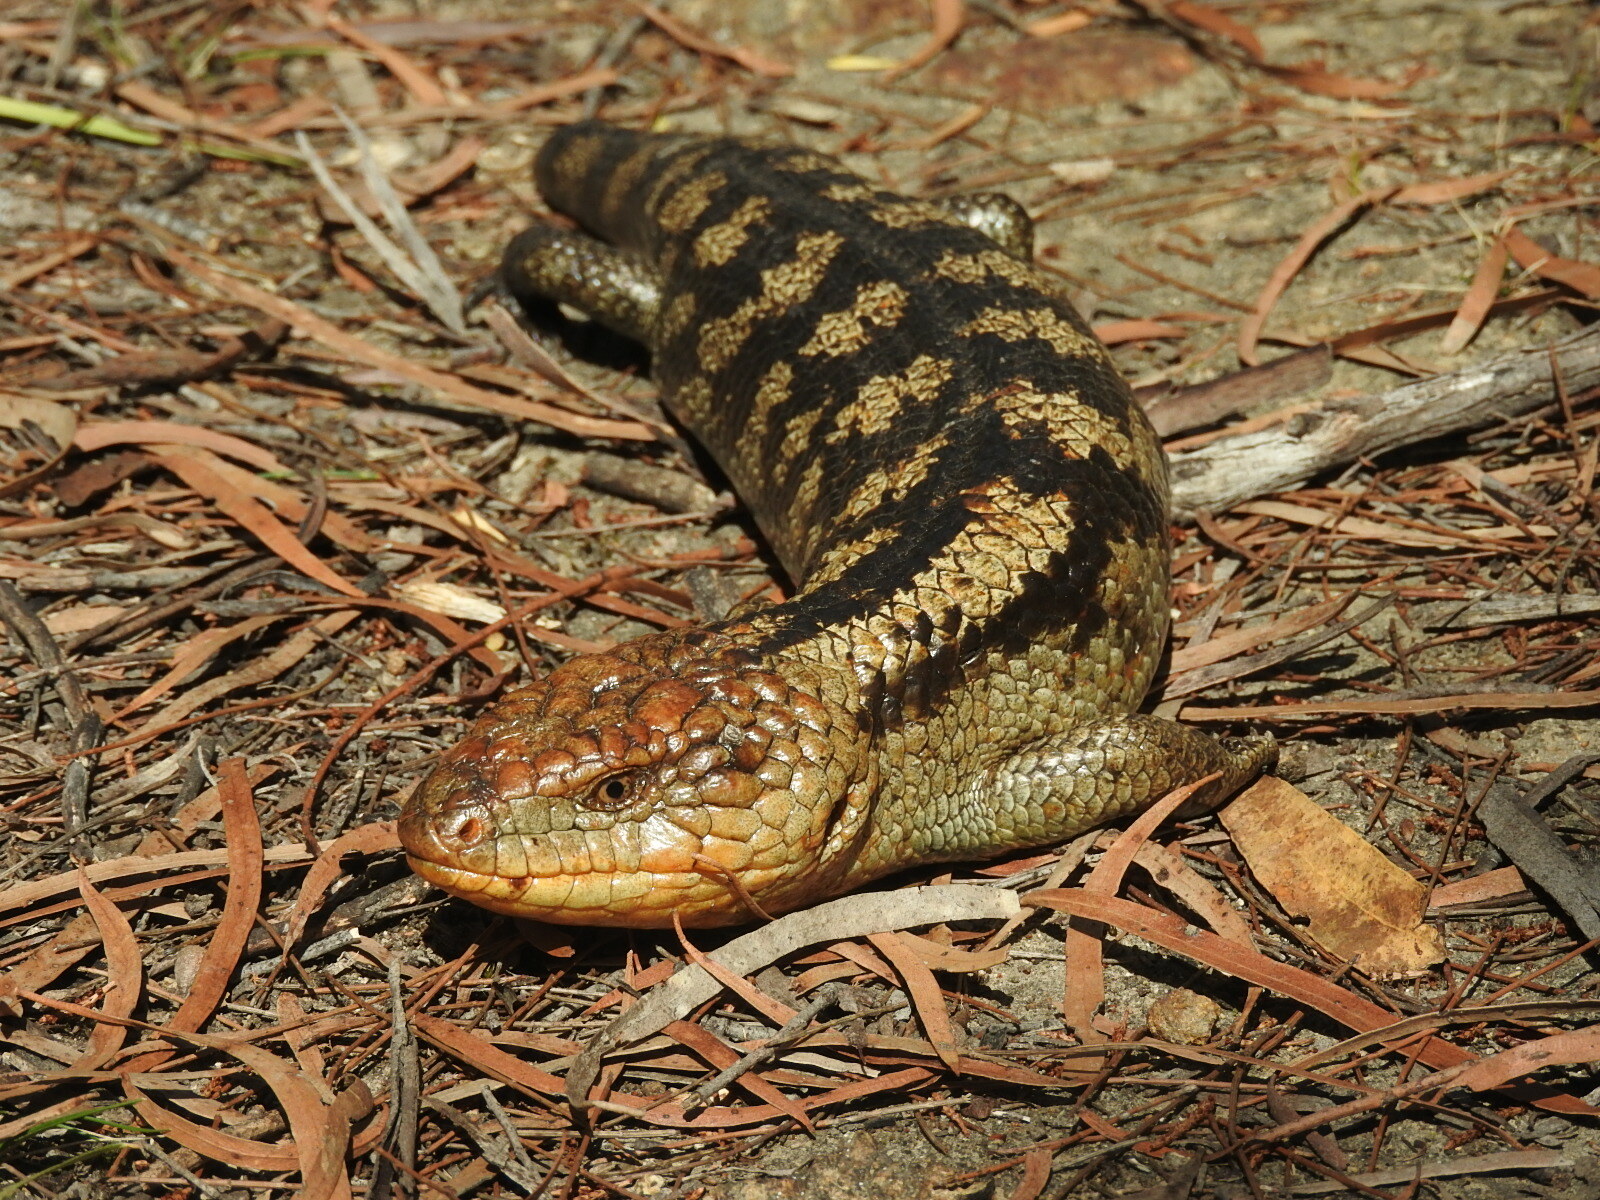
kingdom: Animalia
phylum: Chordata
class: Squamata
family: Scincidae
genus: Tiliqua
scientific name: Tiliqua nigrolutea
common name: Blotched blue-tongued lizard
